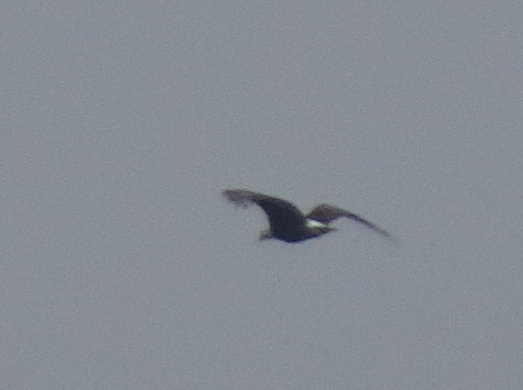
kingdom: Animalia
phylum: Chordata
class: Aves
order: Accipitriformes
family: Accipitridae
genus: Haliaeetus
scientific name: Haliaeetus leucocephalus
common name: Bald eagle
